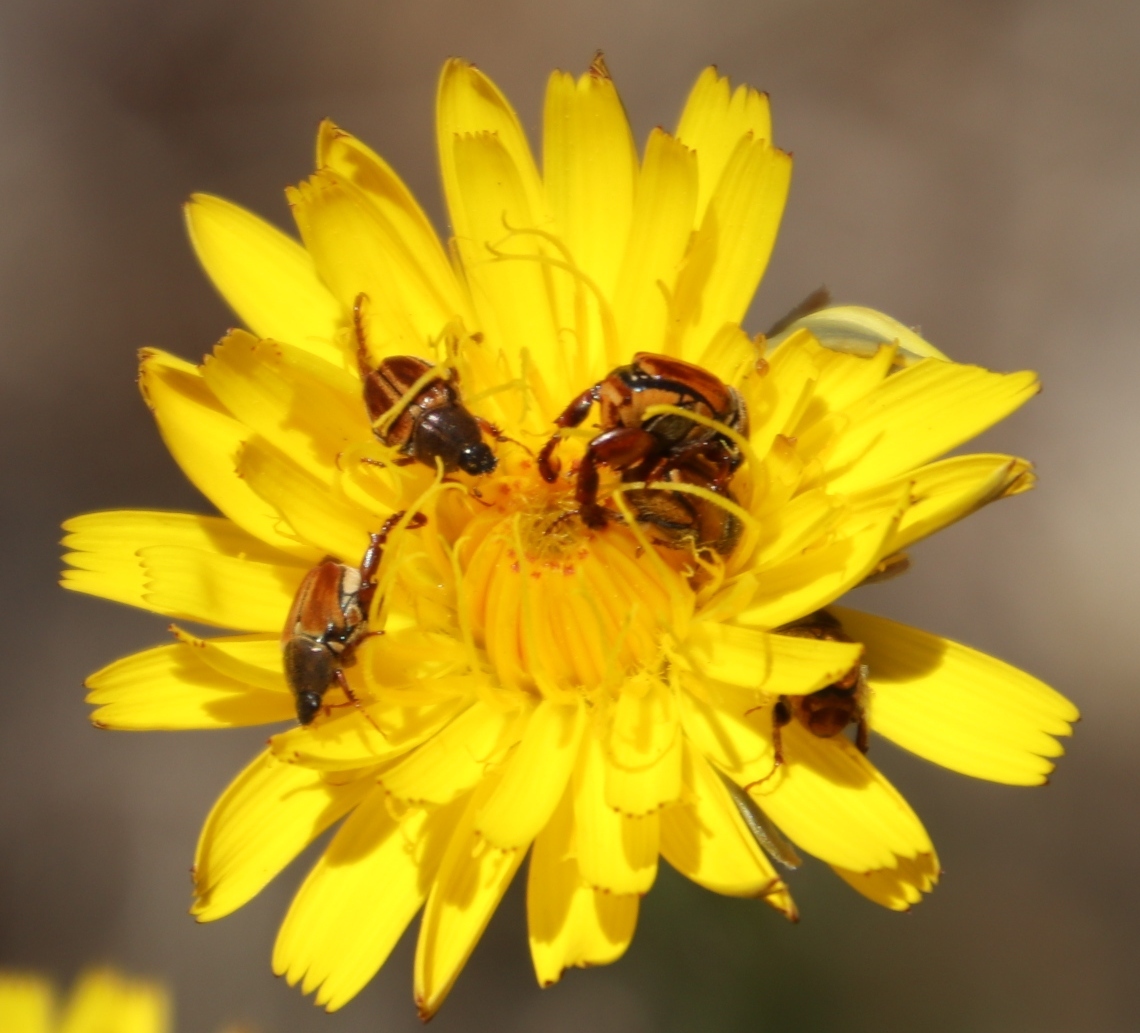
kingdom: Plantae
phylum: Tracheophyta
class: Magnoliopsida
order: Asterales
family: Asteraceae
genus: Hypochaeris
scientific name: Hypochaeris radicata
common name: Flatweed
